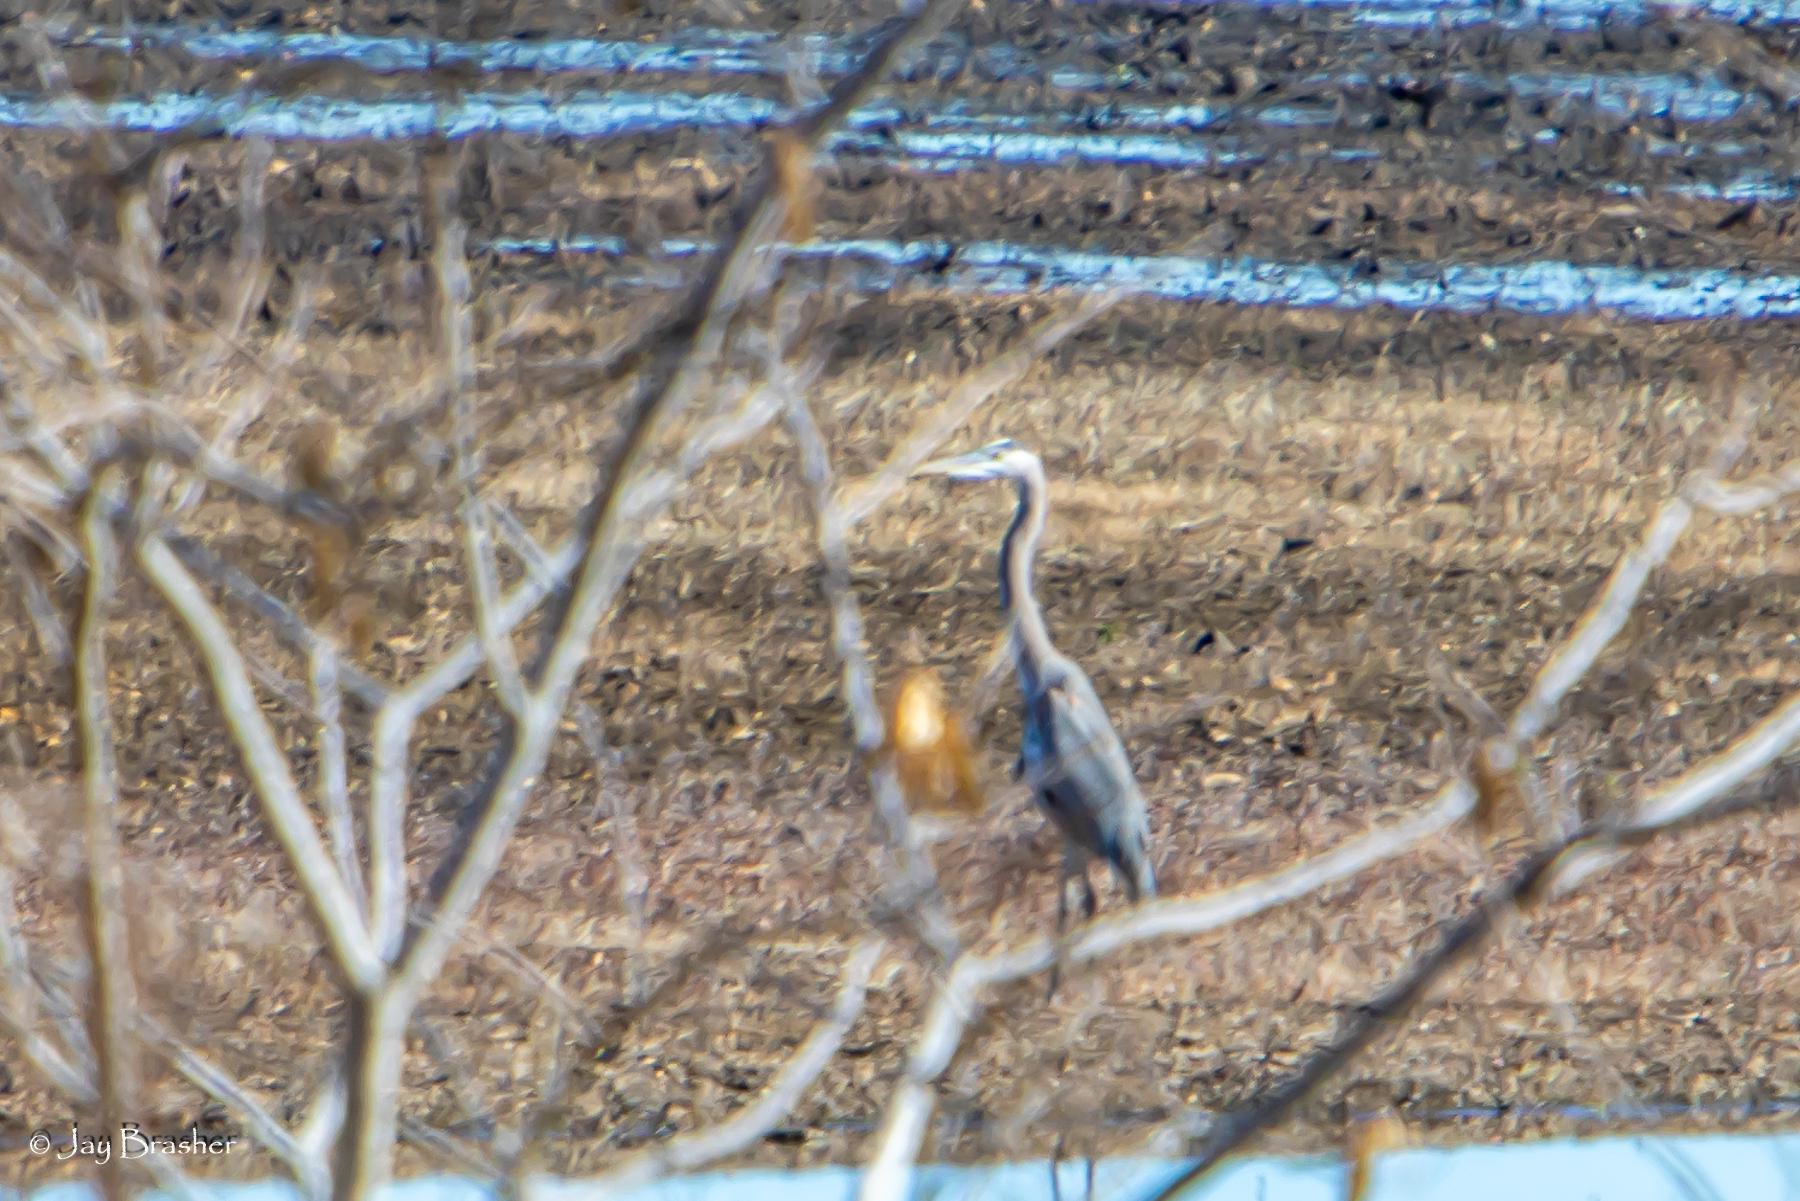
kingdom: Animalia
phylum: Chordata
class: Aves
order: Pelecaniformes
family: Ardeidae
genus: Ardea
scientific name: Ardea herodias
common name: Great blue heron
